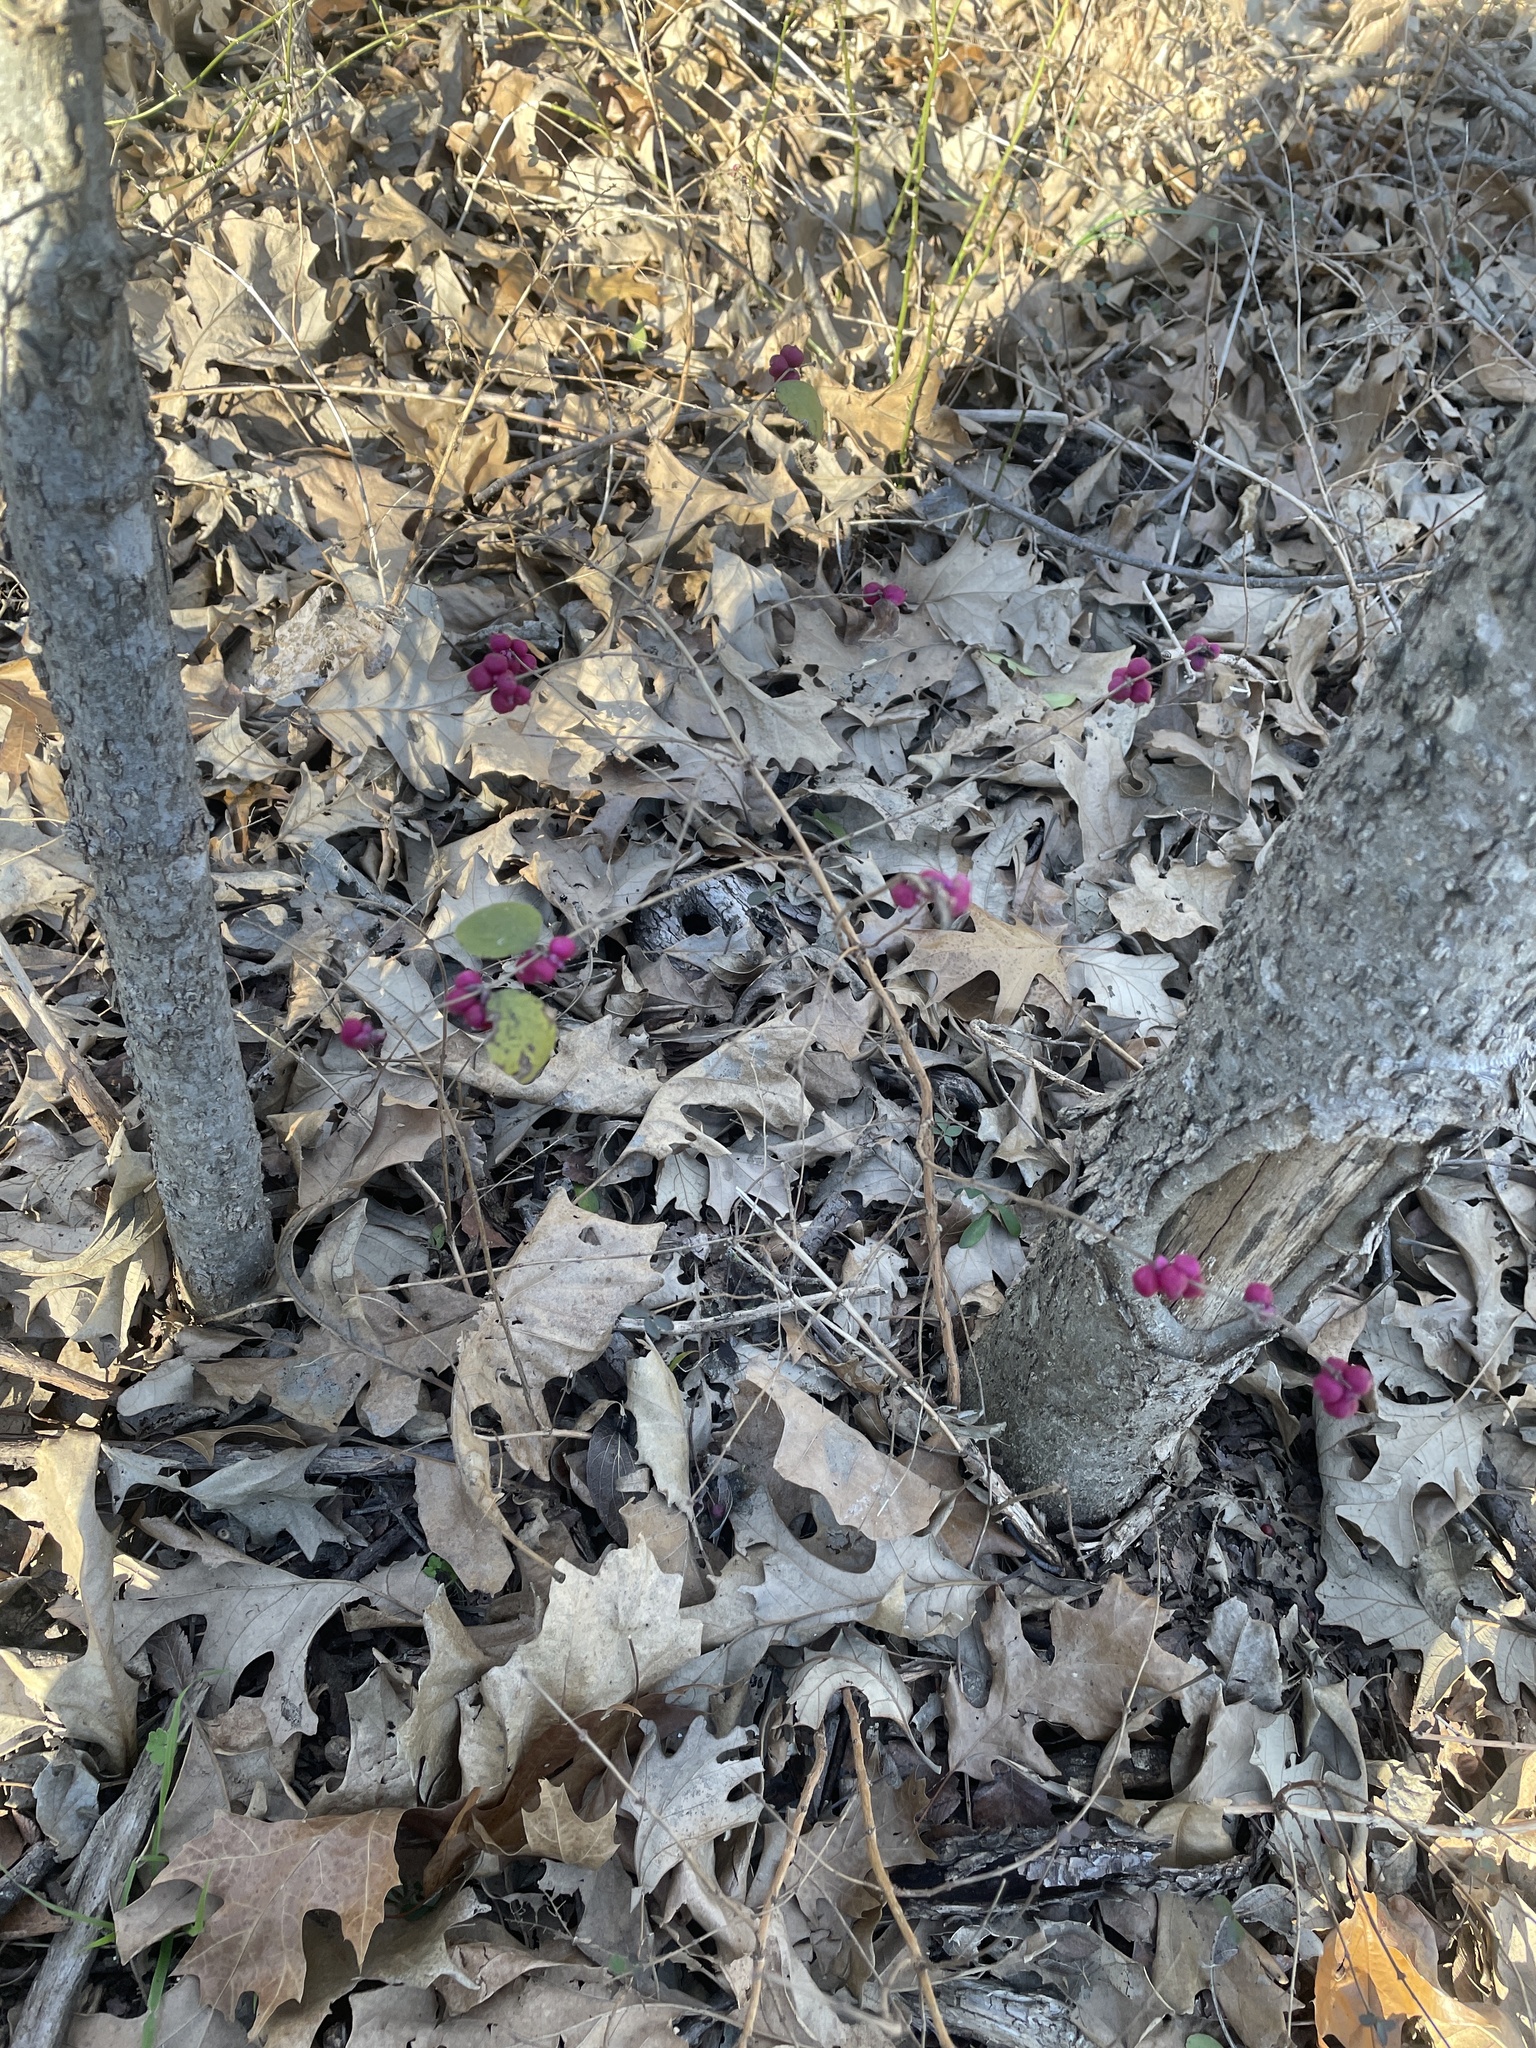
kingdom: Plantae
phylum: Tracheophyta
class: Magnoliopsida
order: Dipsacales
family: Caprifoliaceae
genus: Symphoricarpos
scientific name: Symphoricarpos orbiculatus
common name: Coralberry
